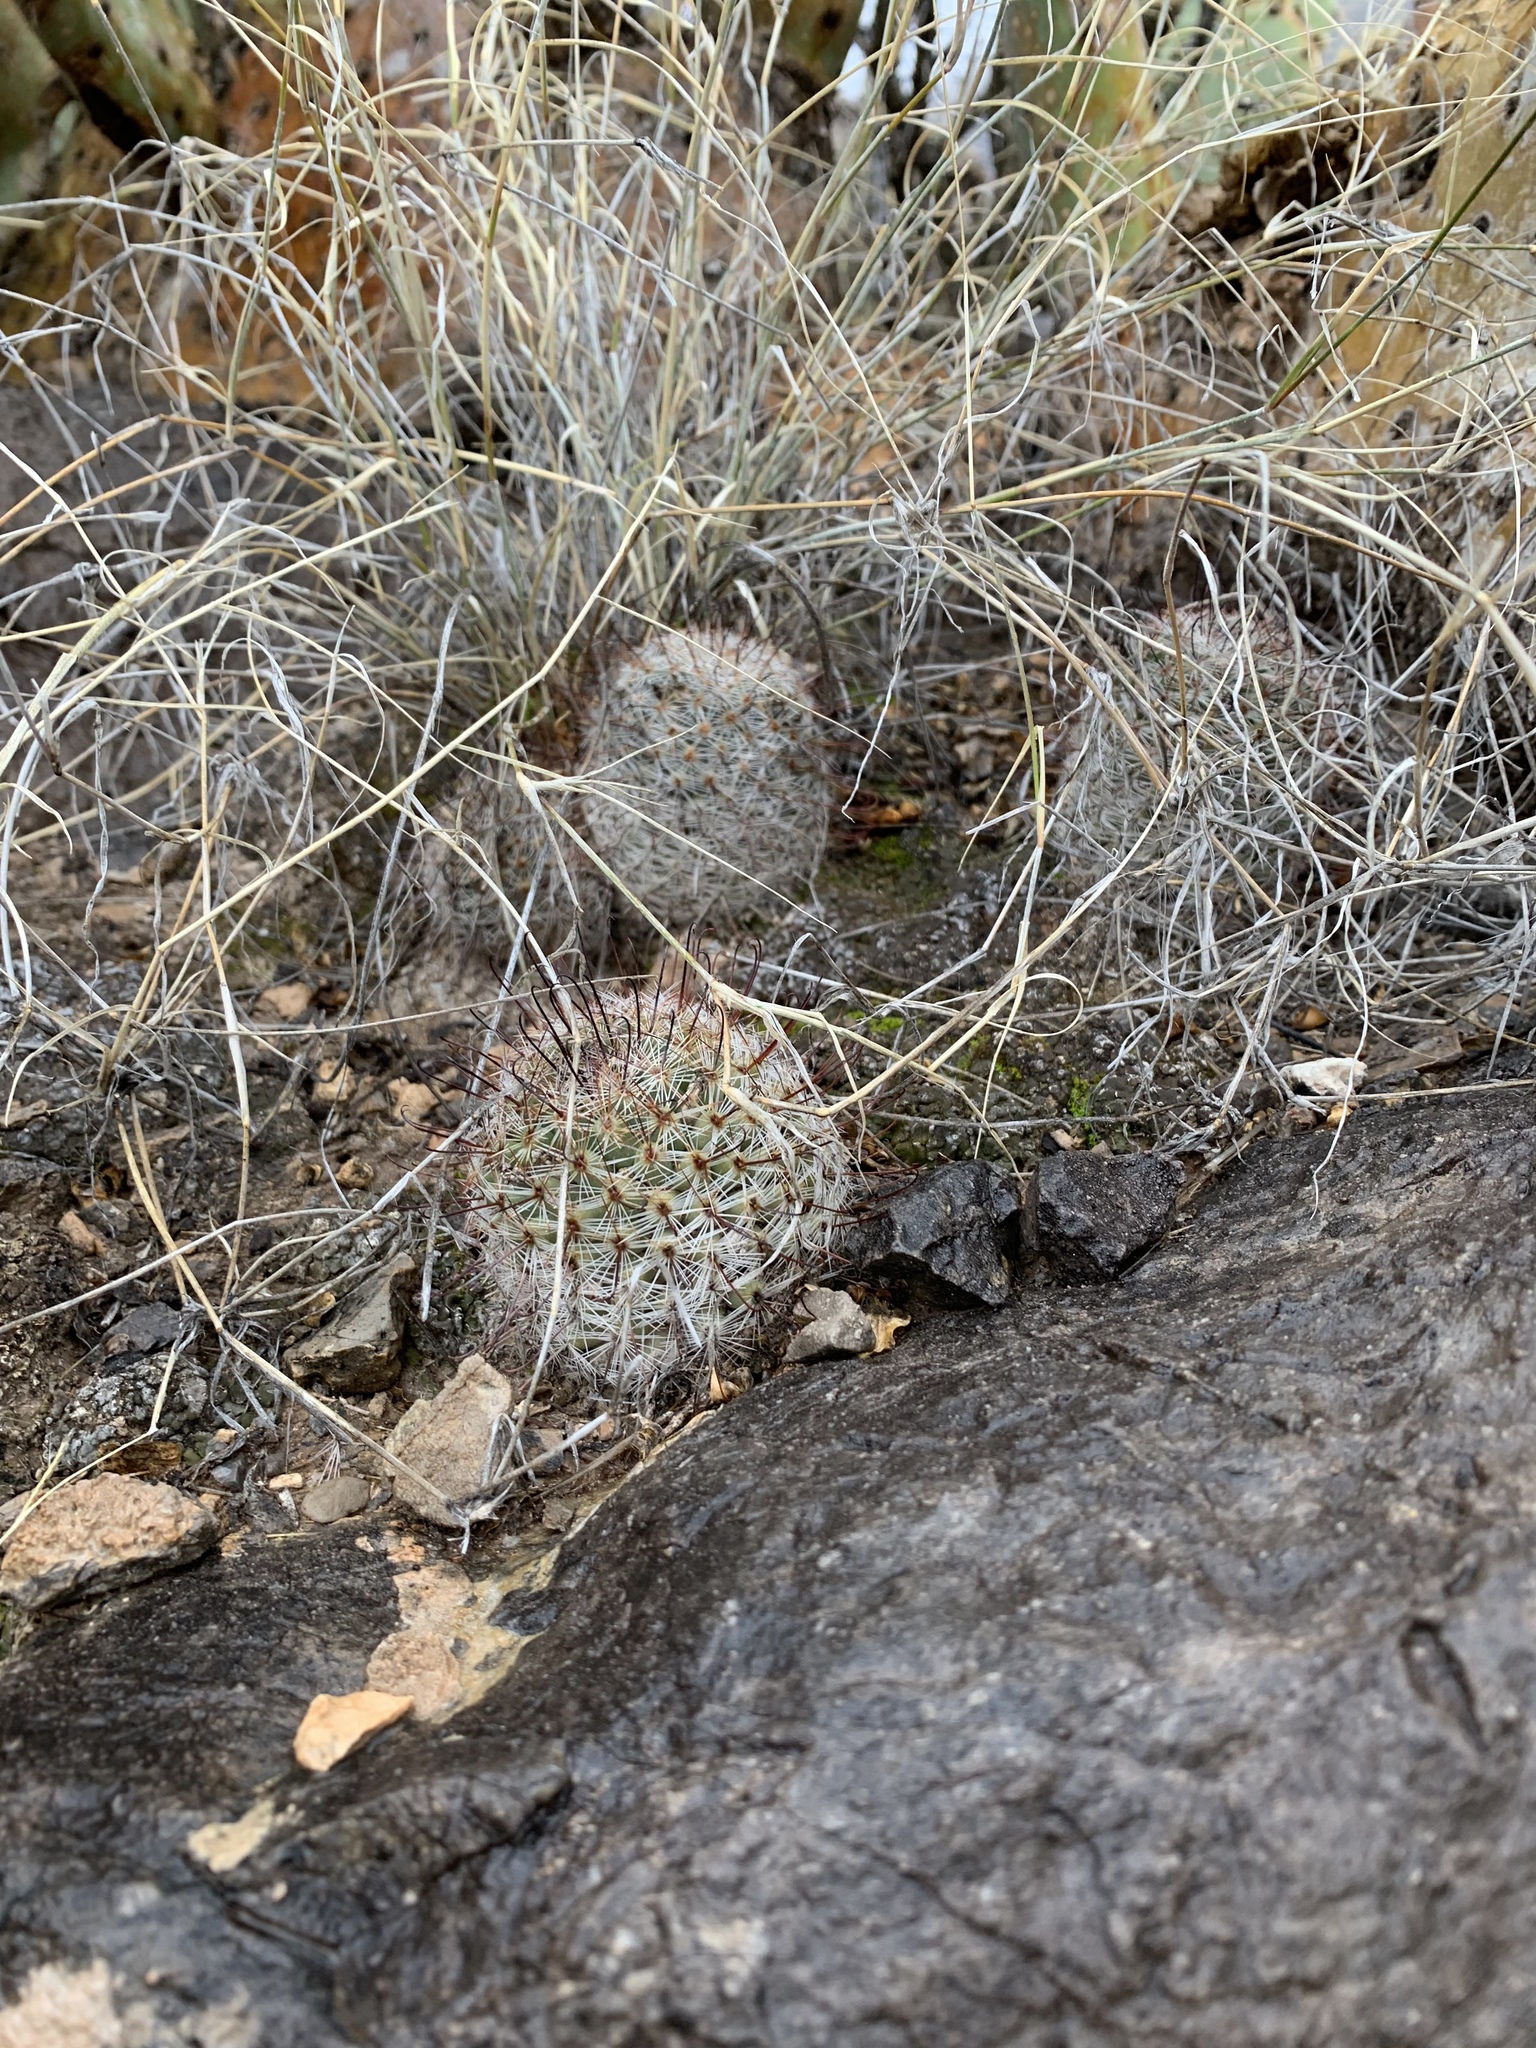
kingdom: Plantae
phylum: Tracheophyta
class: Magnoliopsida
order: Caryophyllales
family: Cactaceae
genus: Cochemiea
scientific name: Cochemiea grahamii
